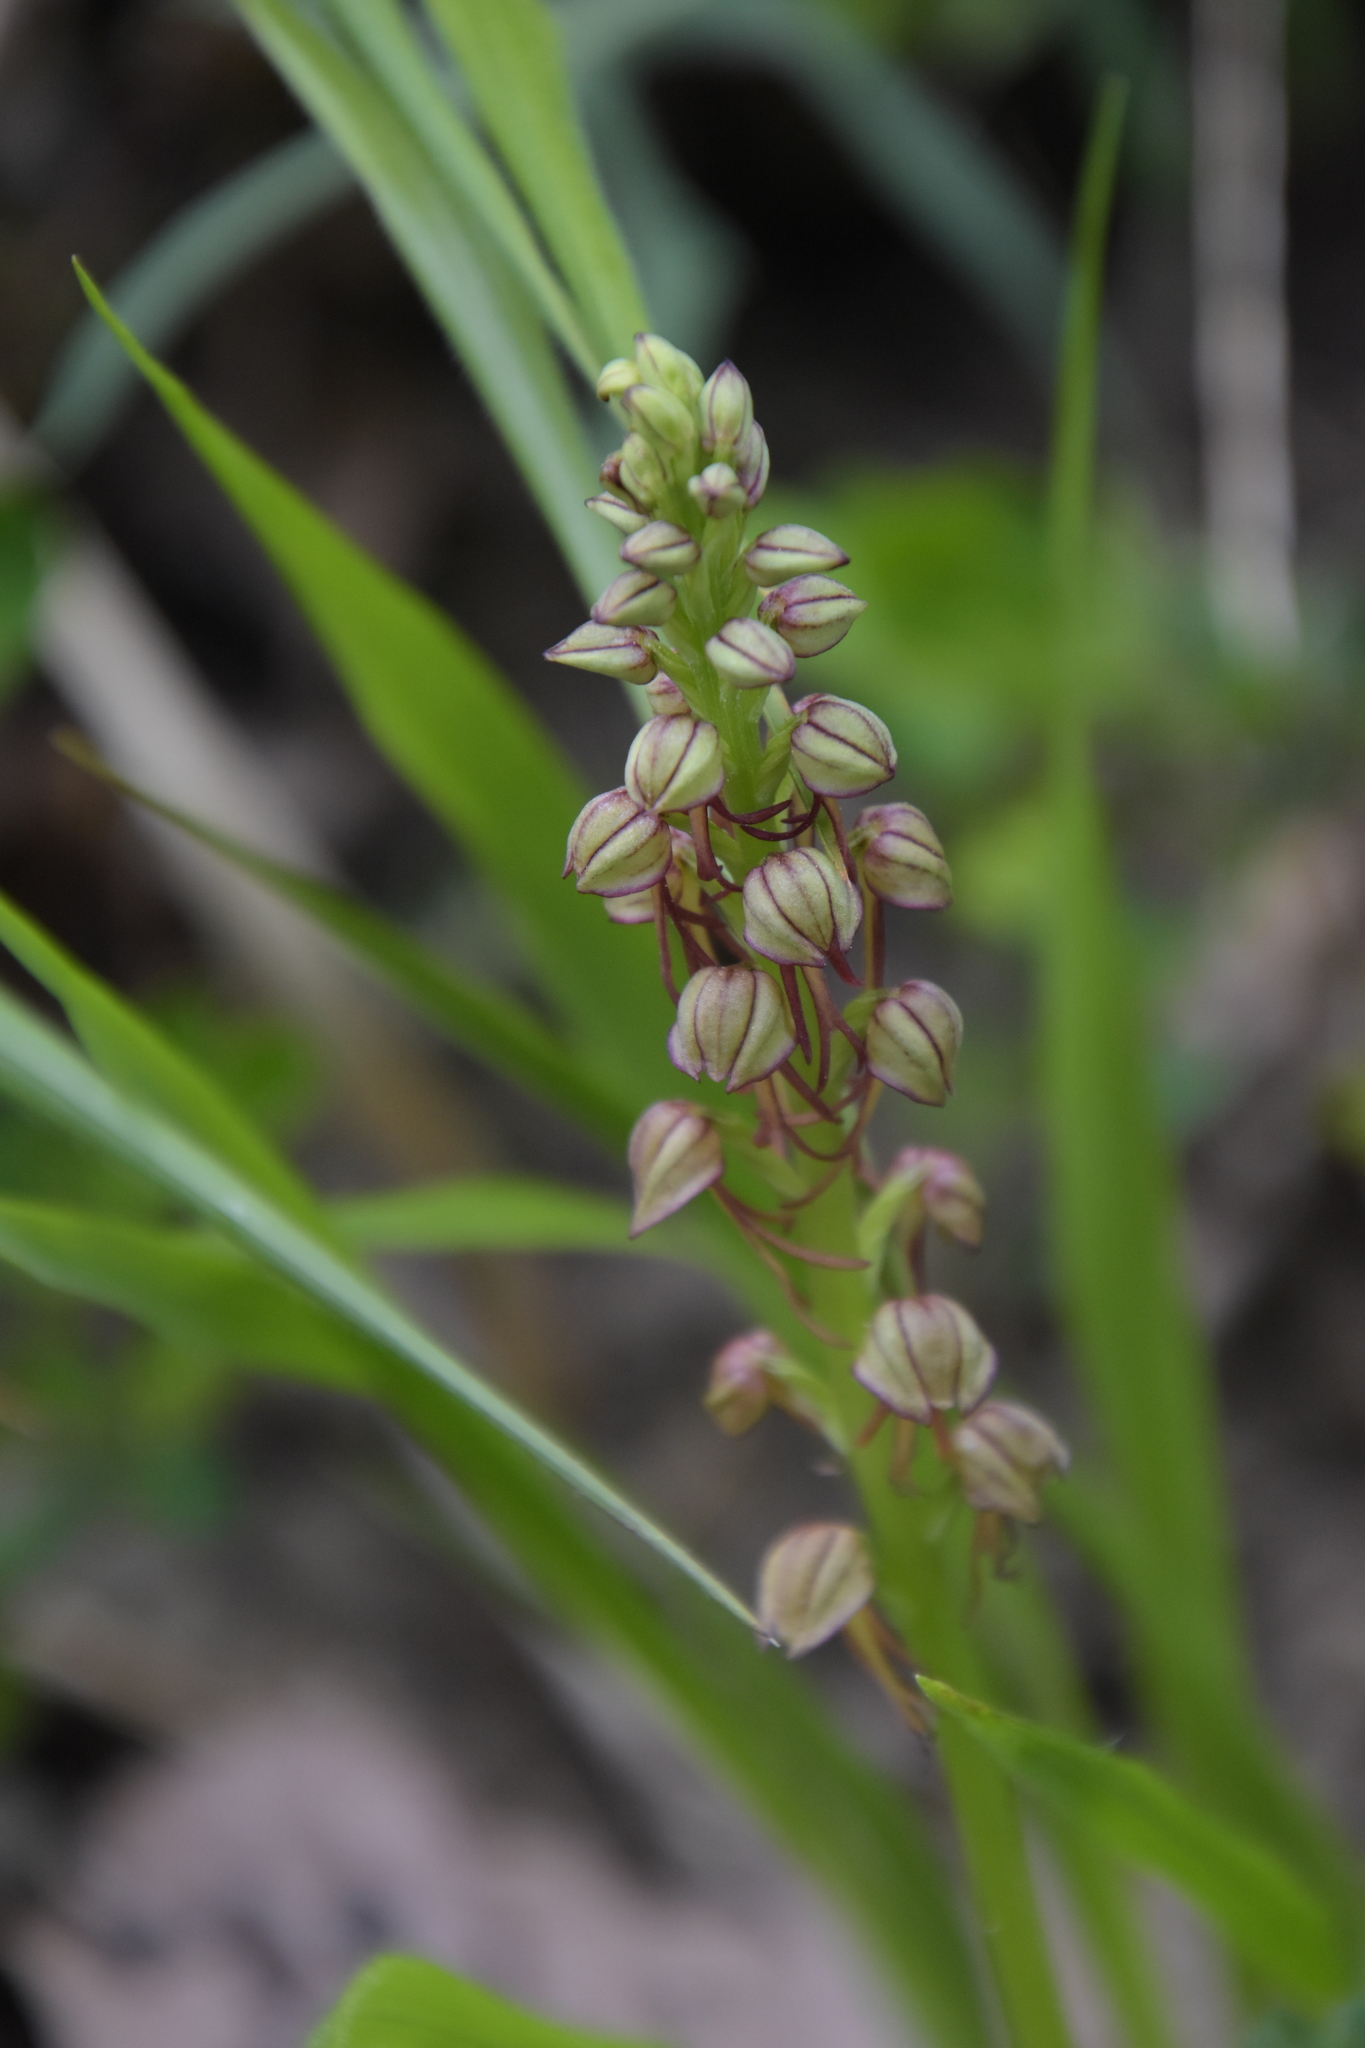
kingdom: Plantae
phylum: Tracheophyta
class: Liliopsida
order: Asparagales
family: Orchidaceae
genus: Orchis
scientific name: Orchis anthropophora
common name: Man orchid
